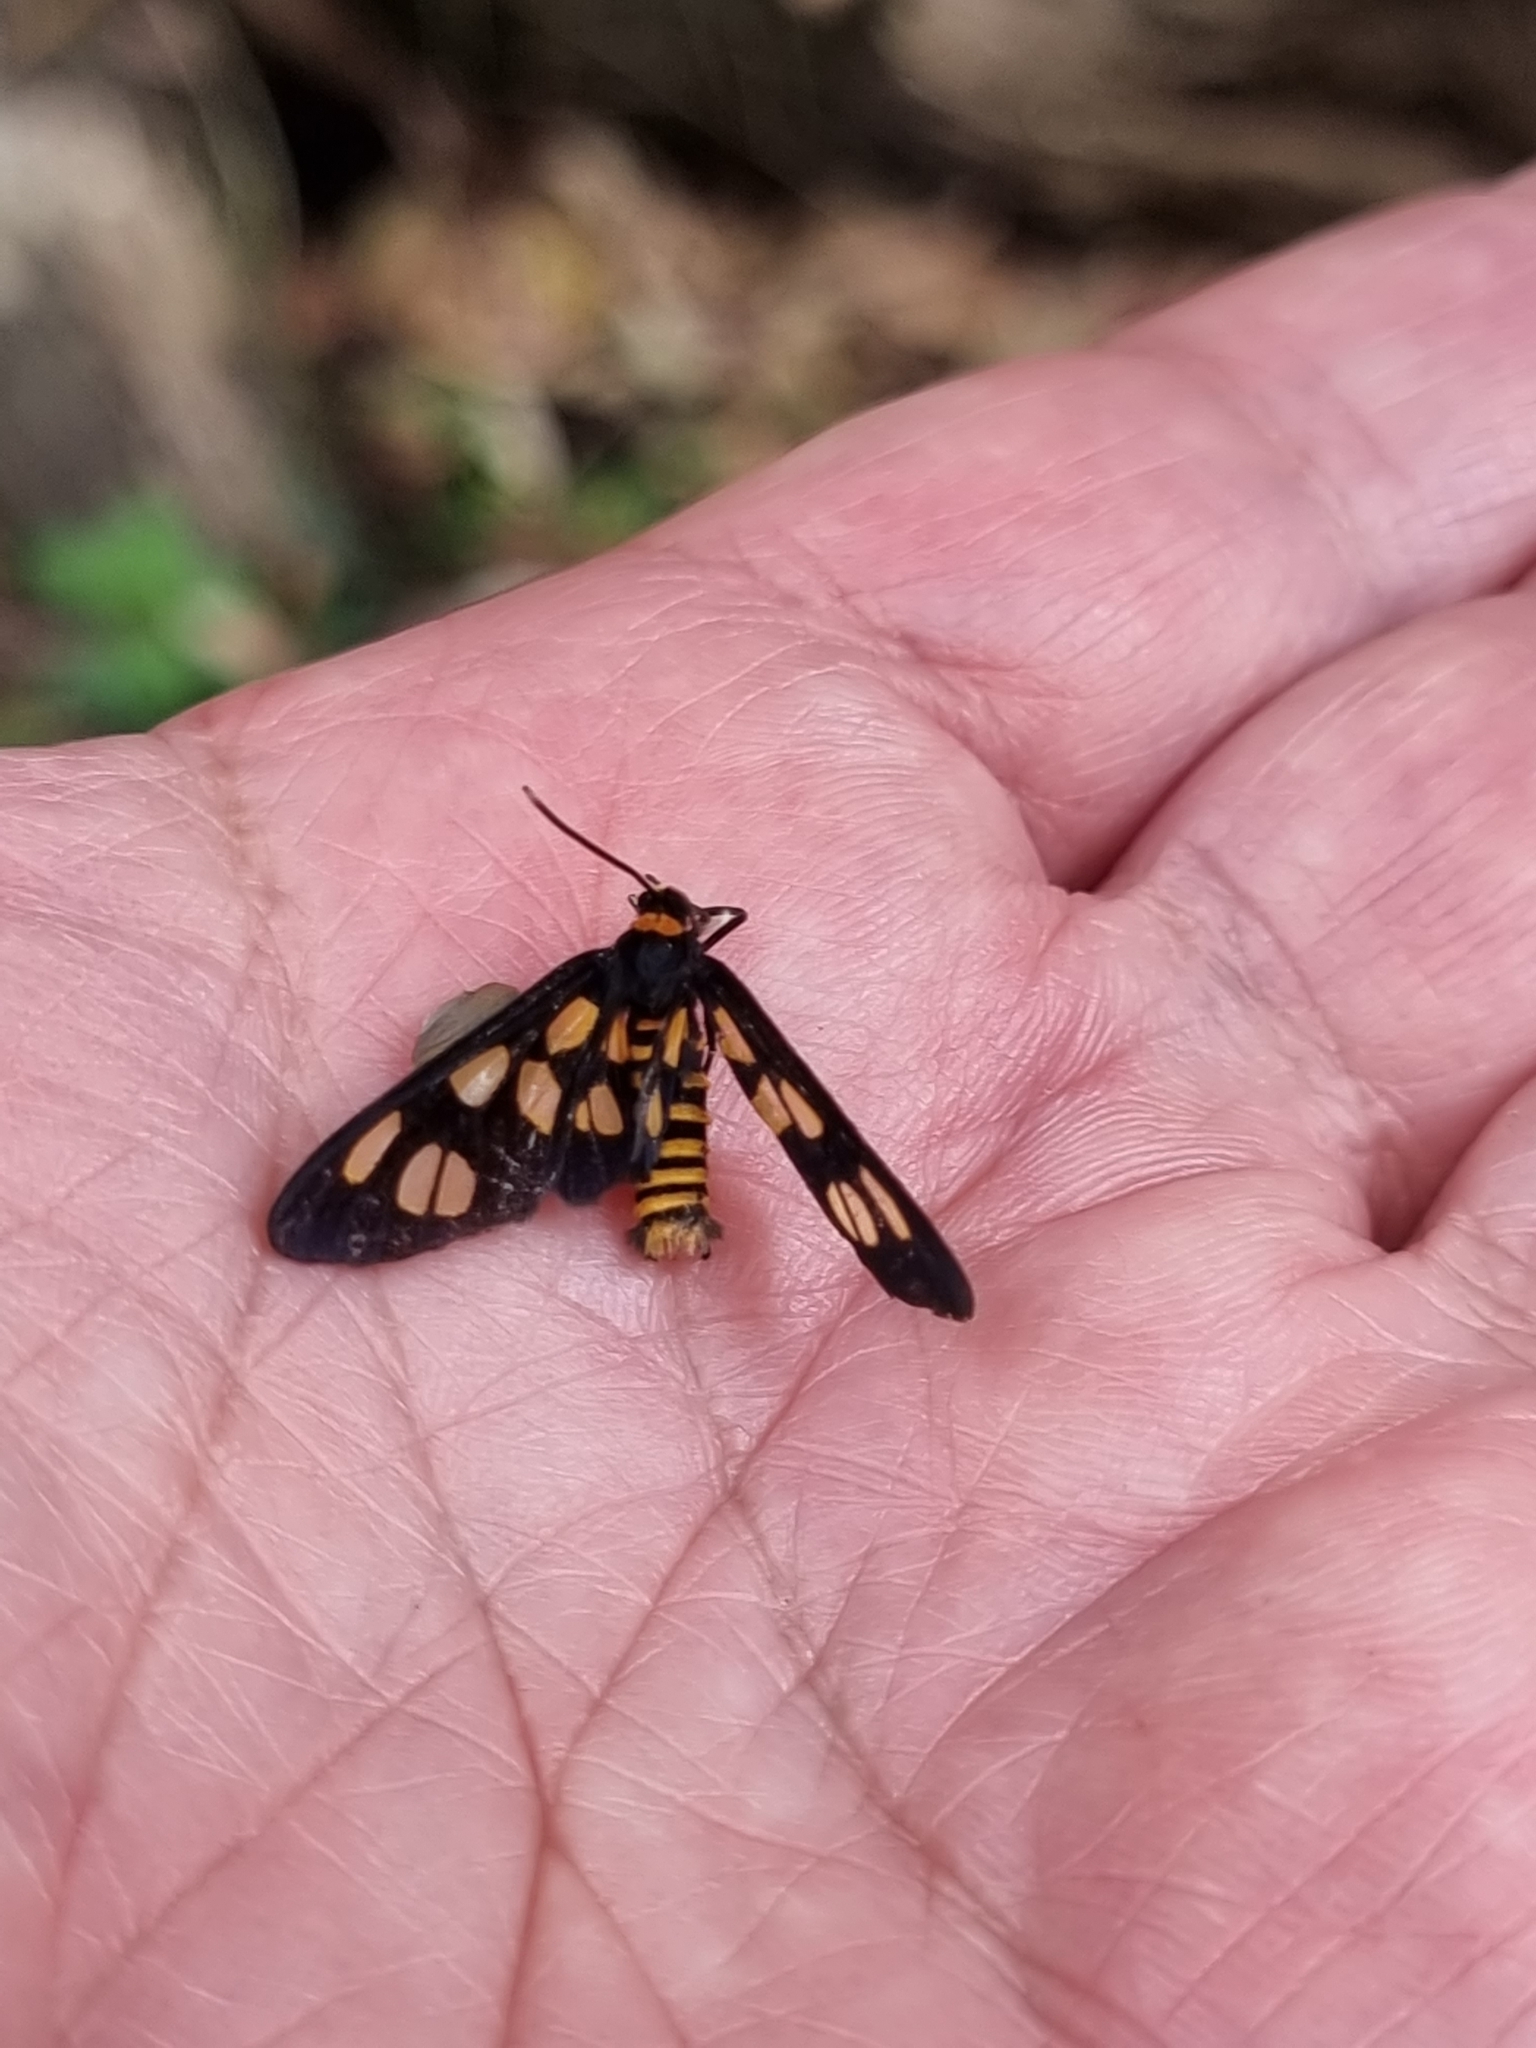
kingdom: Animalia
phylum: Arthropoda
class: Insecta
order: Lepidoptera
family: Erebidae
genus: Amata
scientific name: Amata nigriceps
